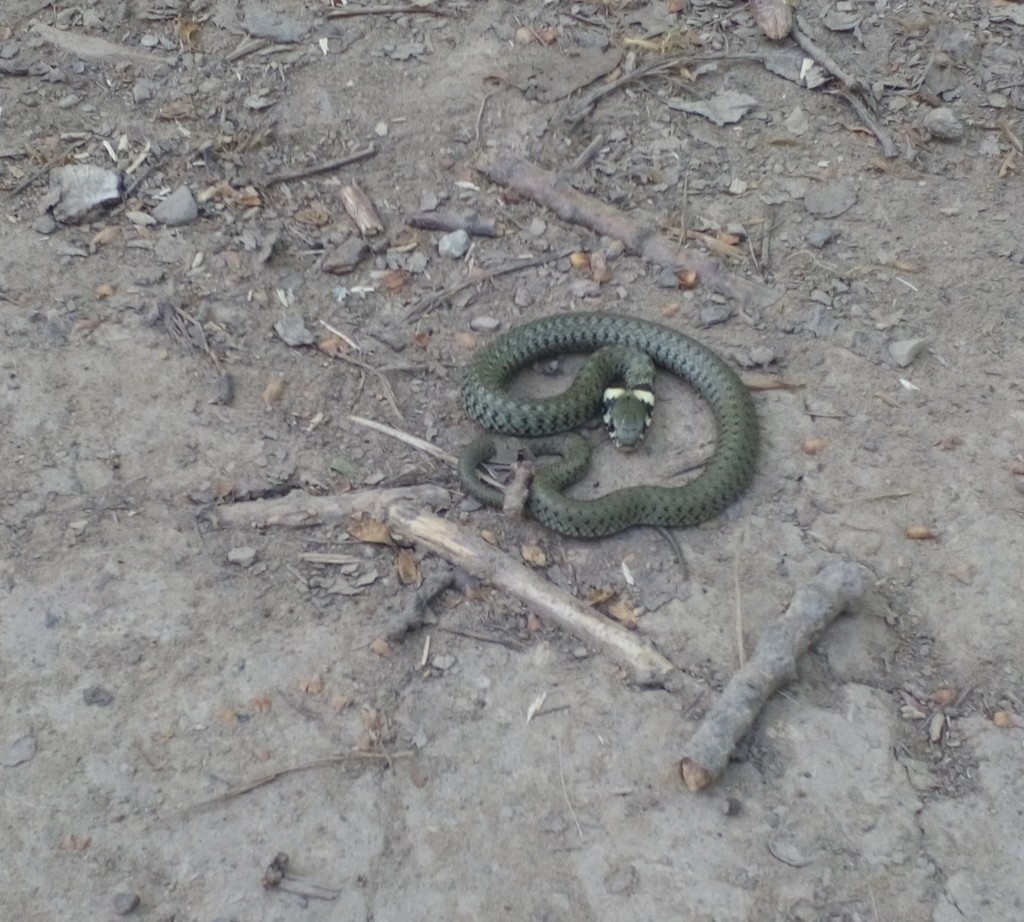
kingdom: Animalia
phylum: Chordata
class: Squamata
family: Colubridae
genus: Natrix
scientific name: Natrix natrix
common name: Grass snake
